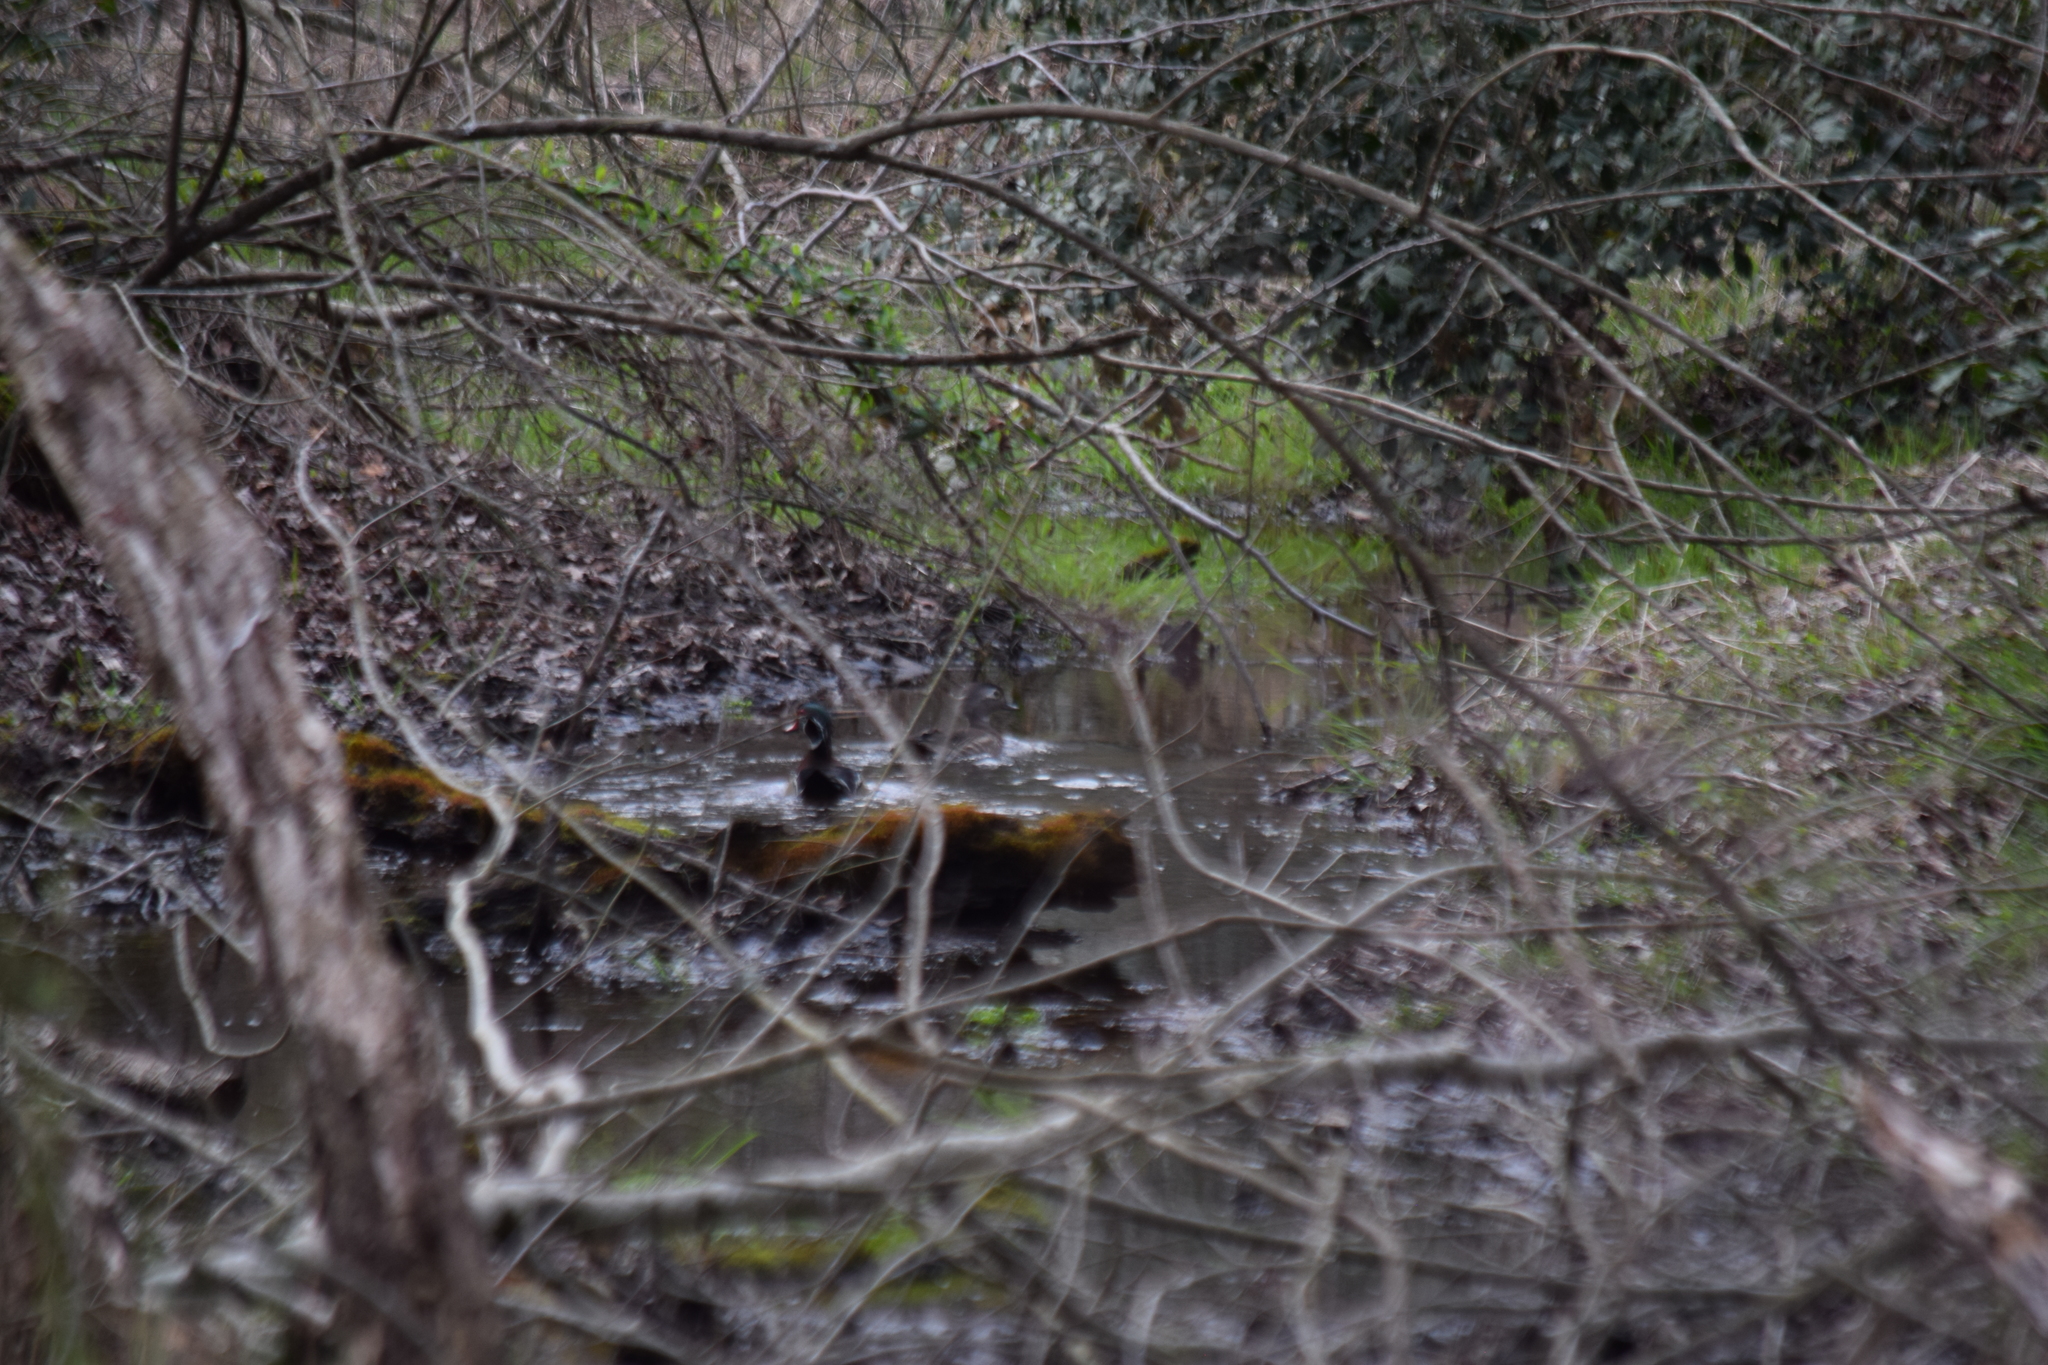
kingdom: Animalia
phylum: Chordata
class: Aves
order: Anseriformes
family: Anatidae
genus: Aix
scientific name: Aix sponsa
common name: Wood duck
